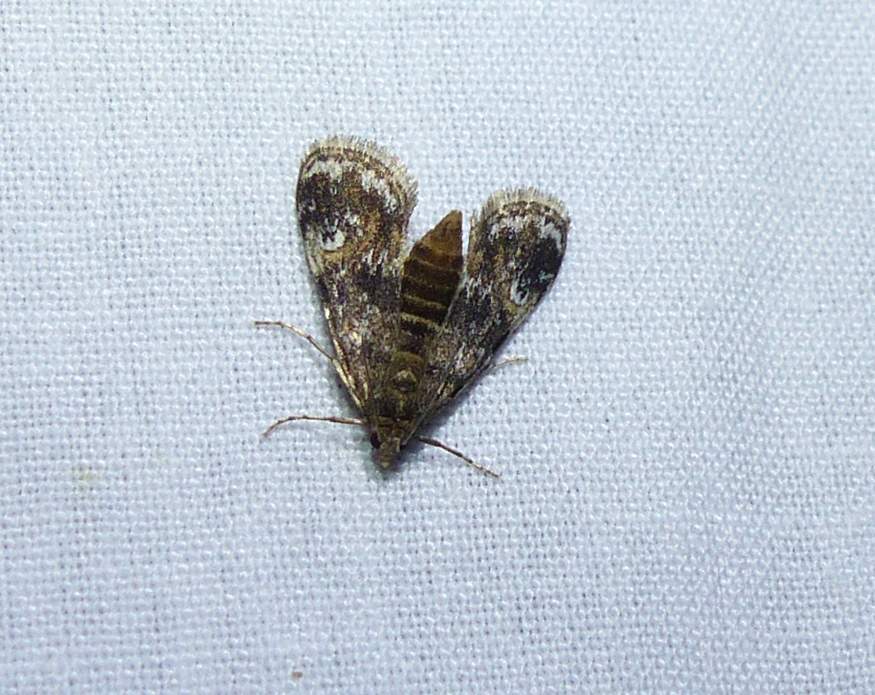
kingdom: Animalia
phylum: Arthropoda
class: Insecta
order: Lepidoptera
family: Crambidae
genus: Elophila
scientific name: Elophila obliteralis
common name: Waterlily leafcutter moth
